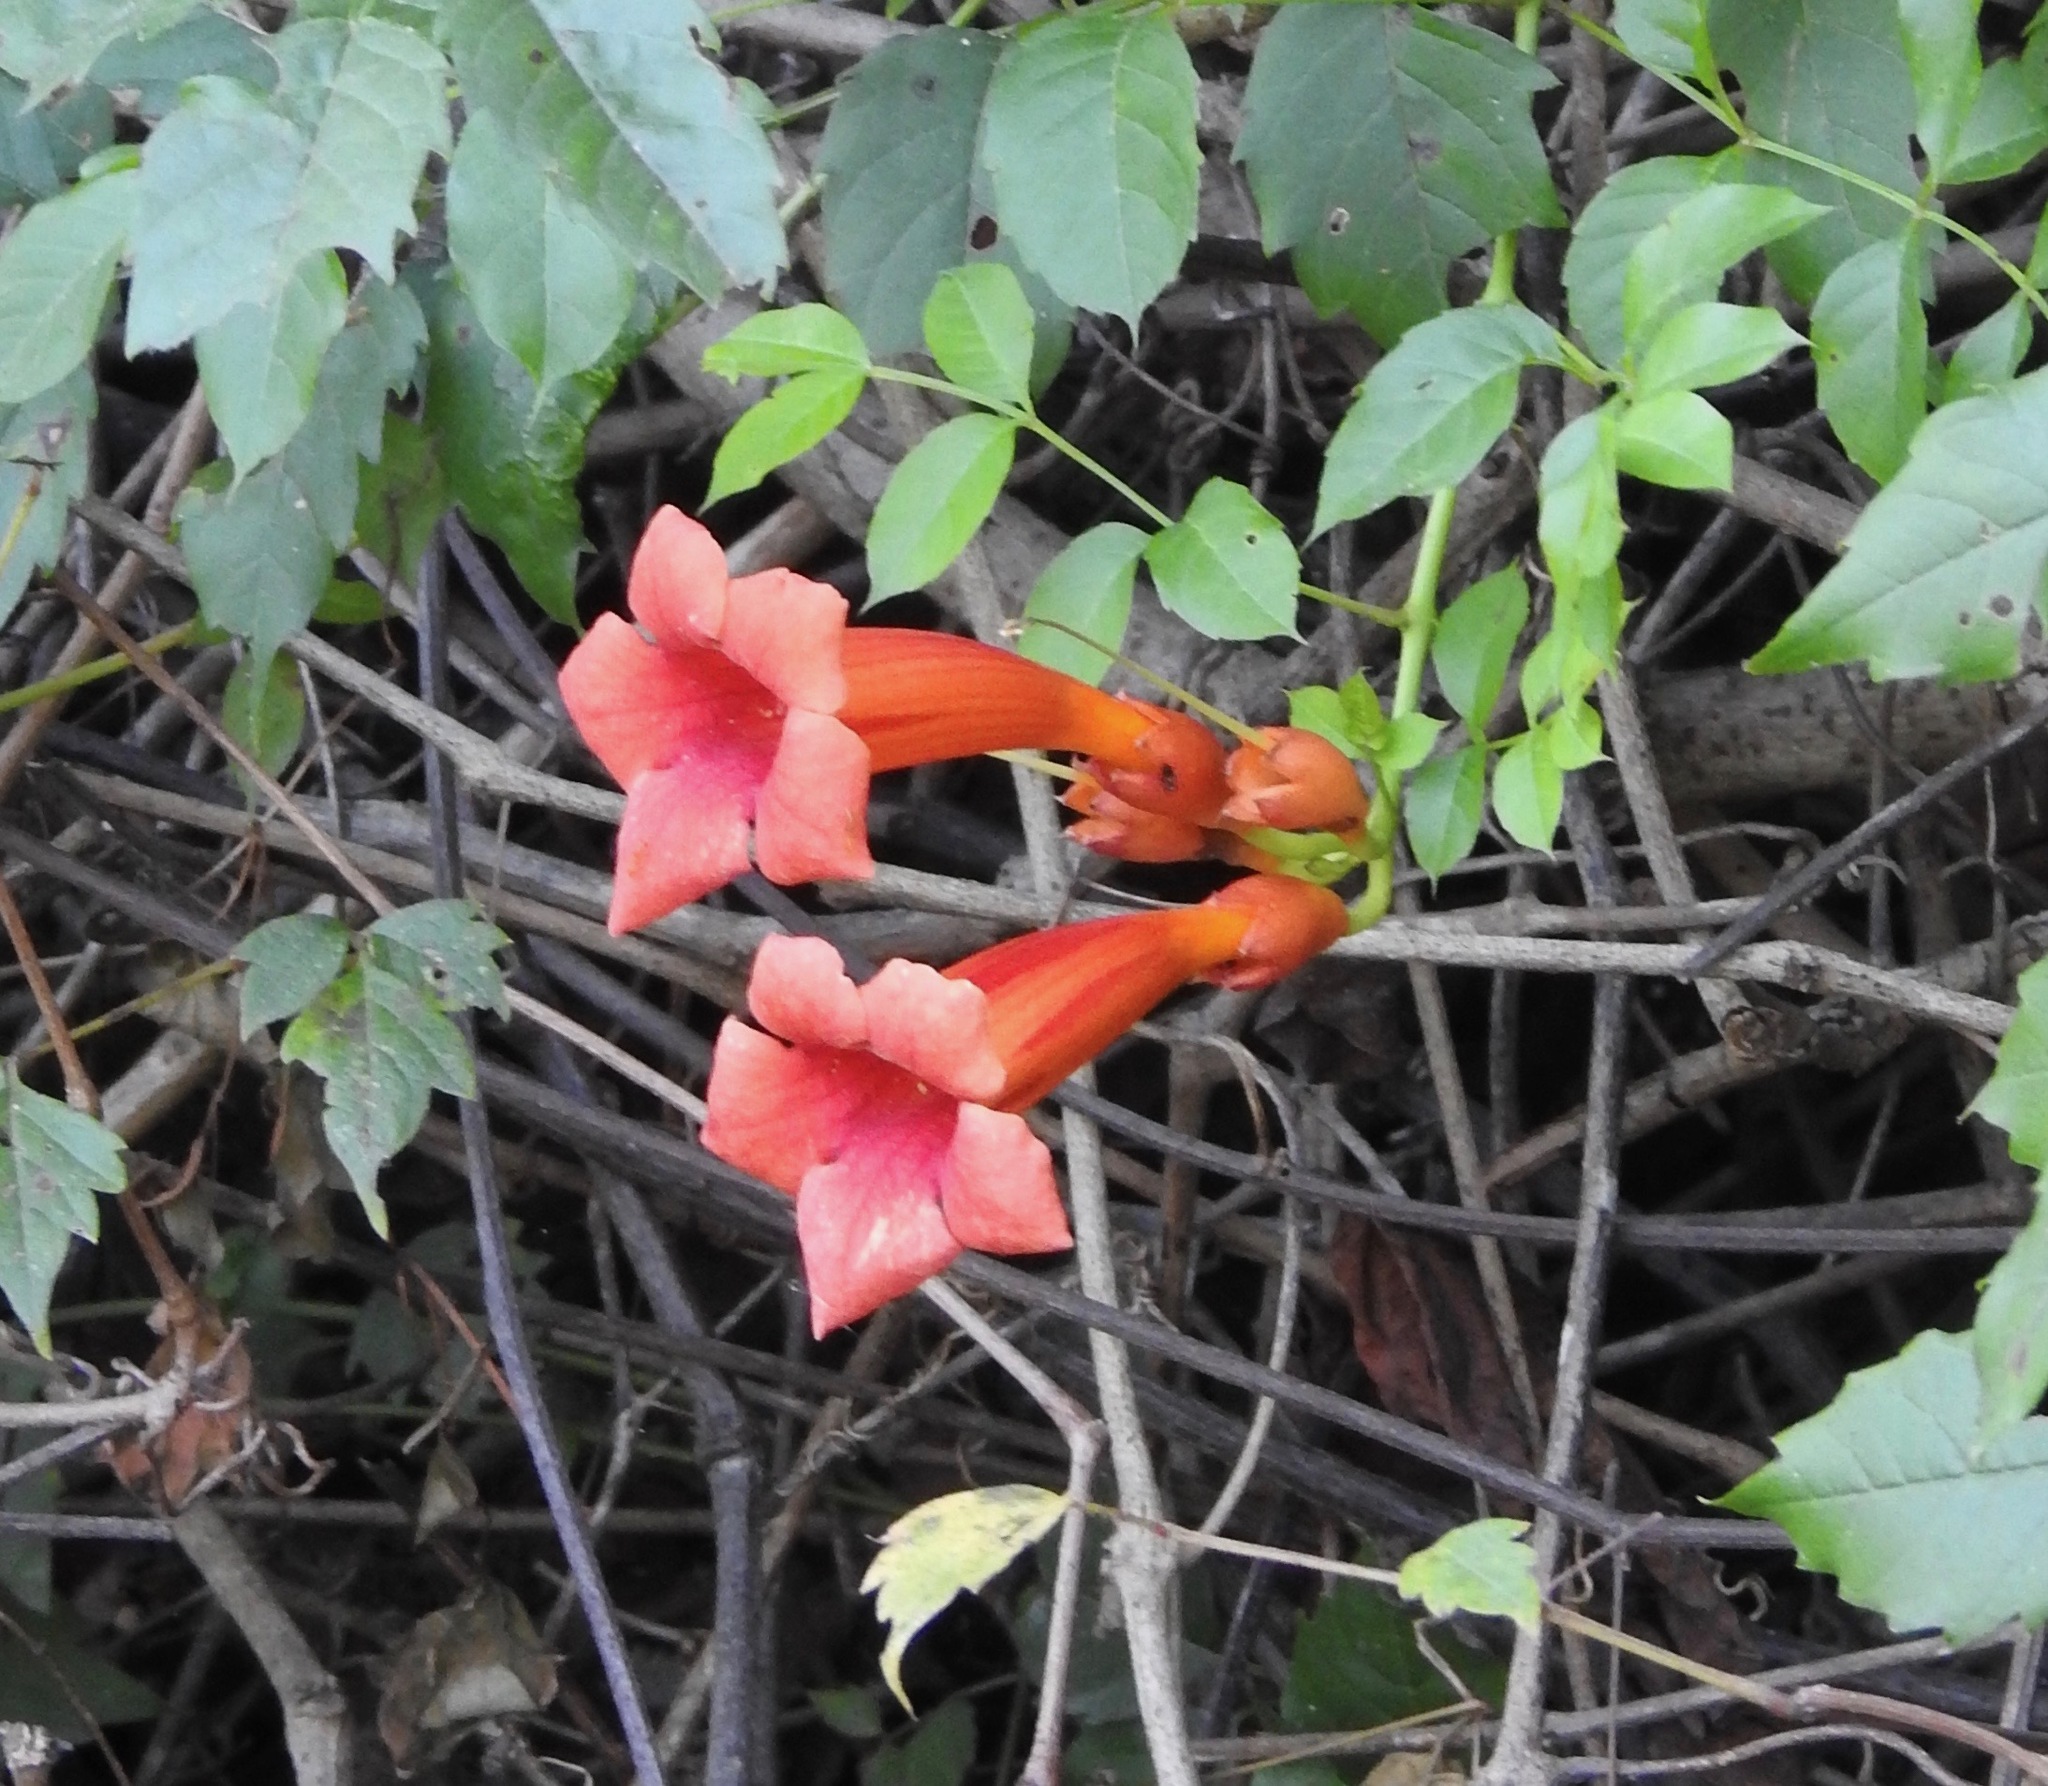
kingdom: Plantae
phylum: Tracheophyta
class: Magnoliopsida
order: Lamiales
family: Bignoniaceae
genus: Campsis
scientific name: Campsis radicans
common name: Trumpet-creeper
